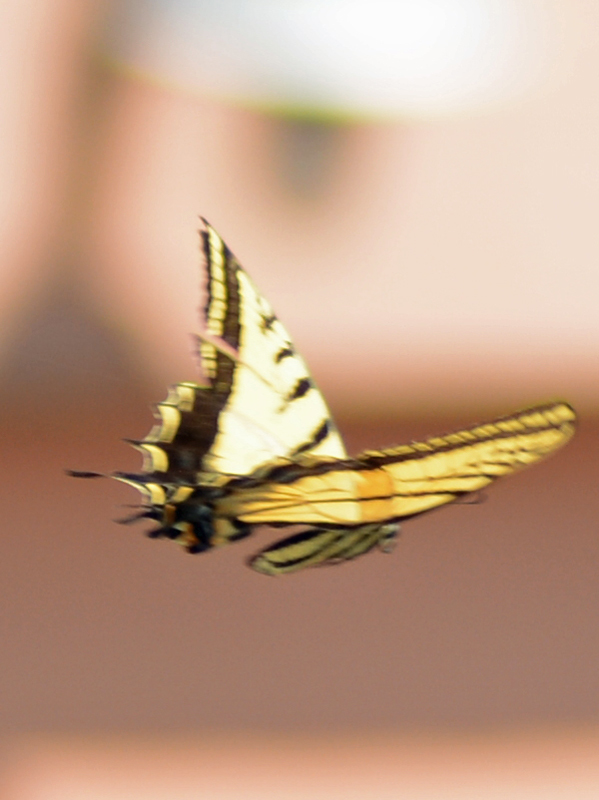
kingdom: Animalia
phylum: Arthropoda
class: Insecta
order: Lepidoptera
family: Papilionidae
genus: Papilio
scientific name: Papilio multicaudata
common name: Two-tailed tiger swallowtail
